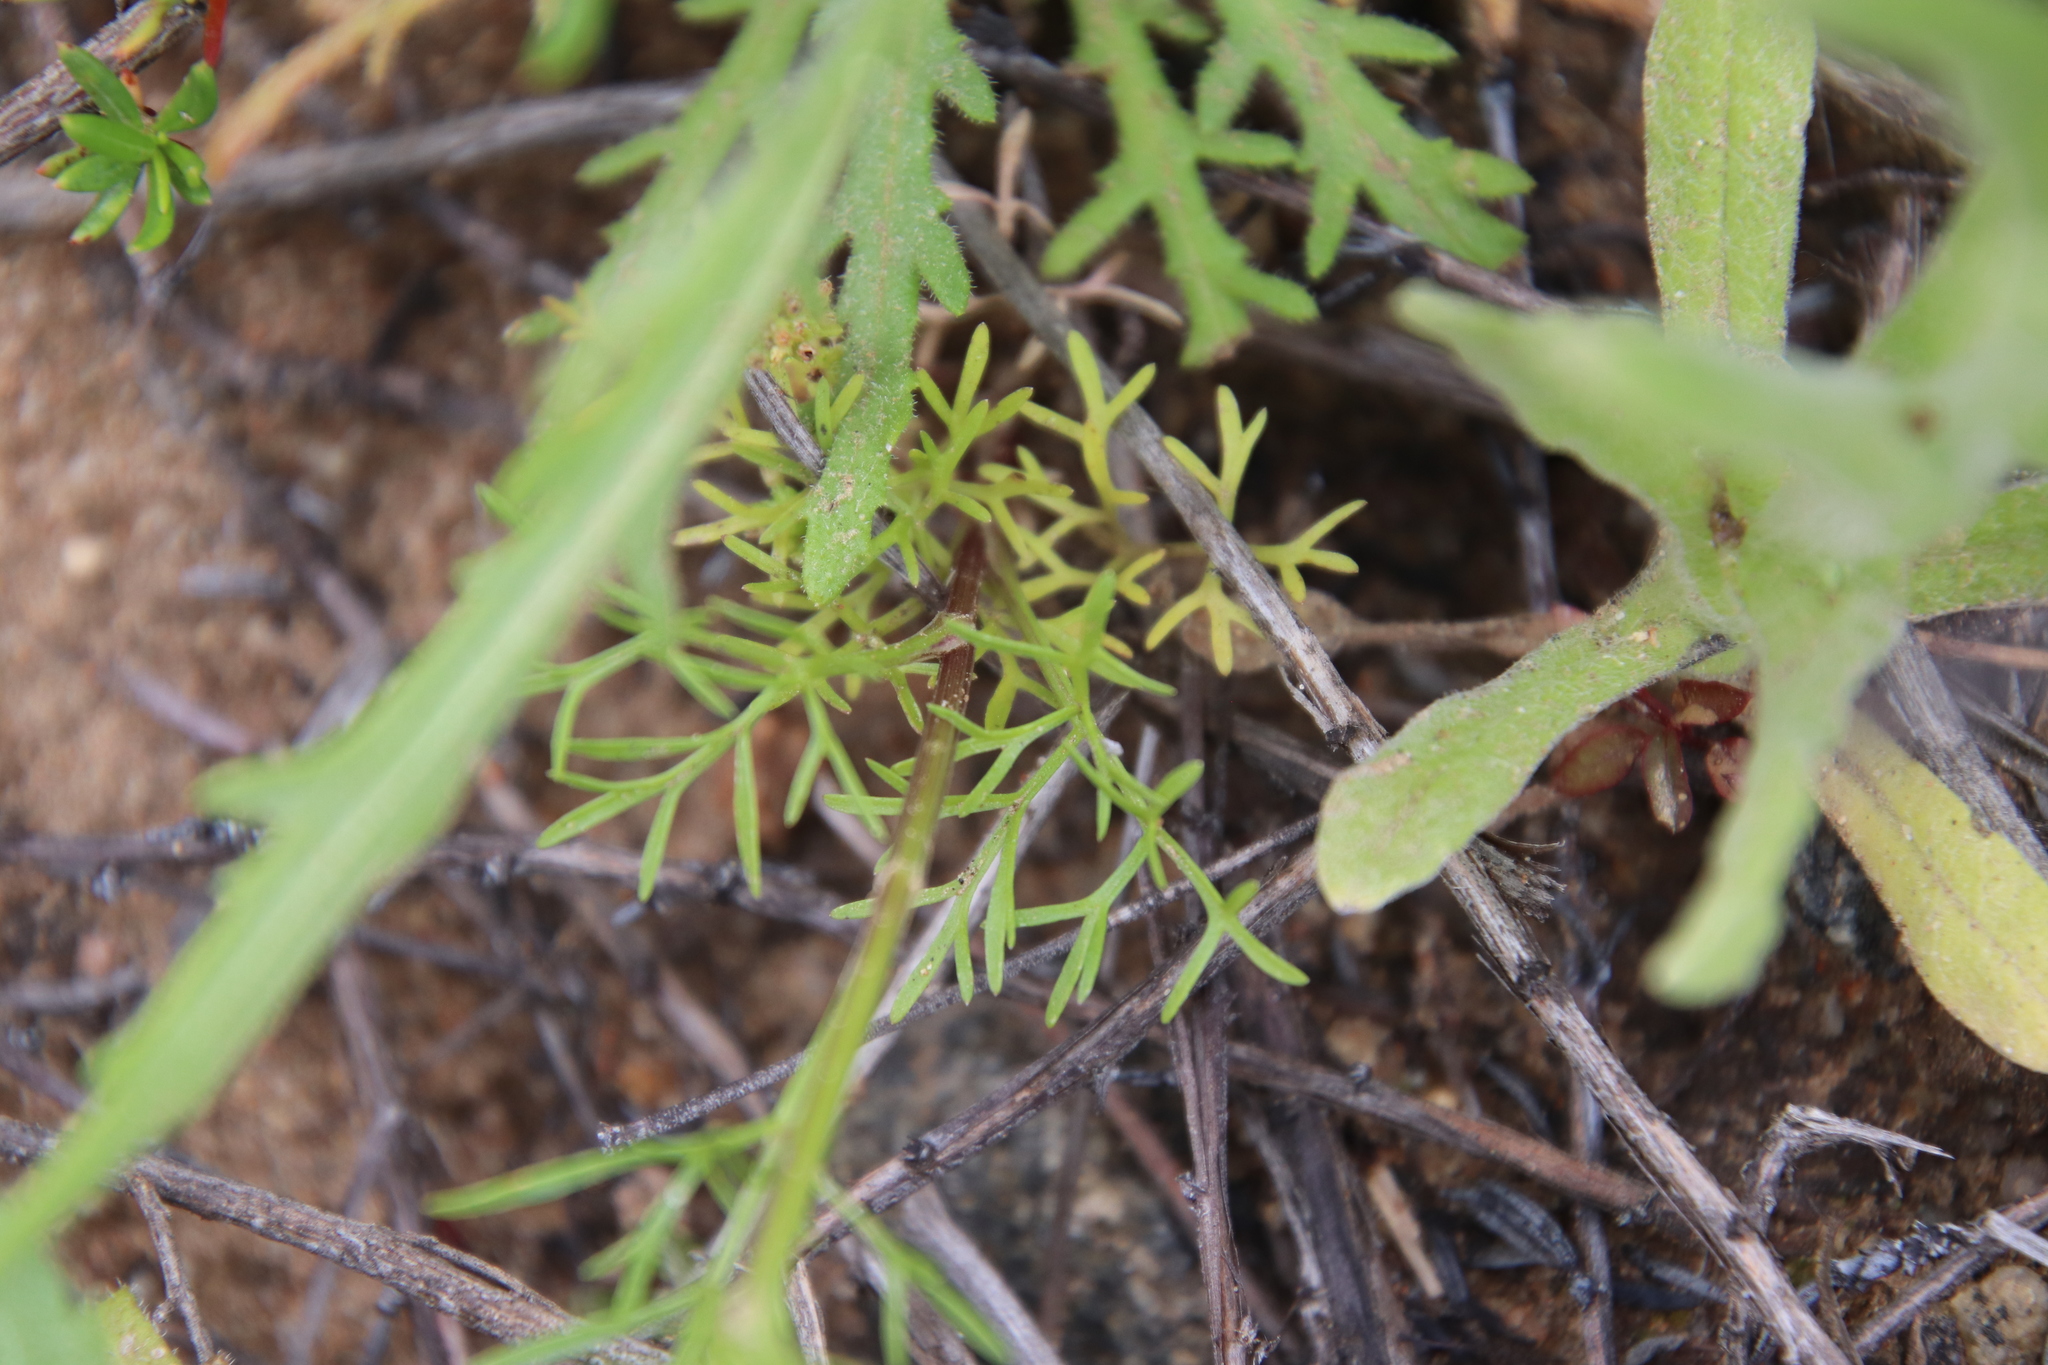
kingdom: Plantae
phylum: Tracheophyta
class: Magnoliopsida
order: Apiales
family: Apiaceae
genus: Apiastrum
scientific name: Apiastrum angustifolium
